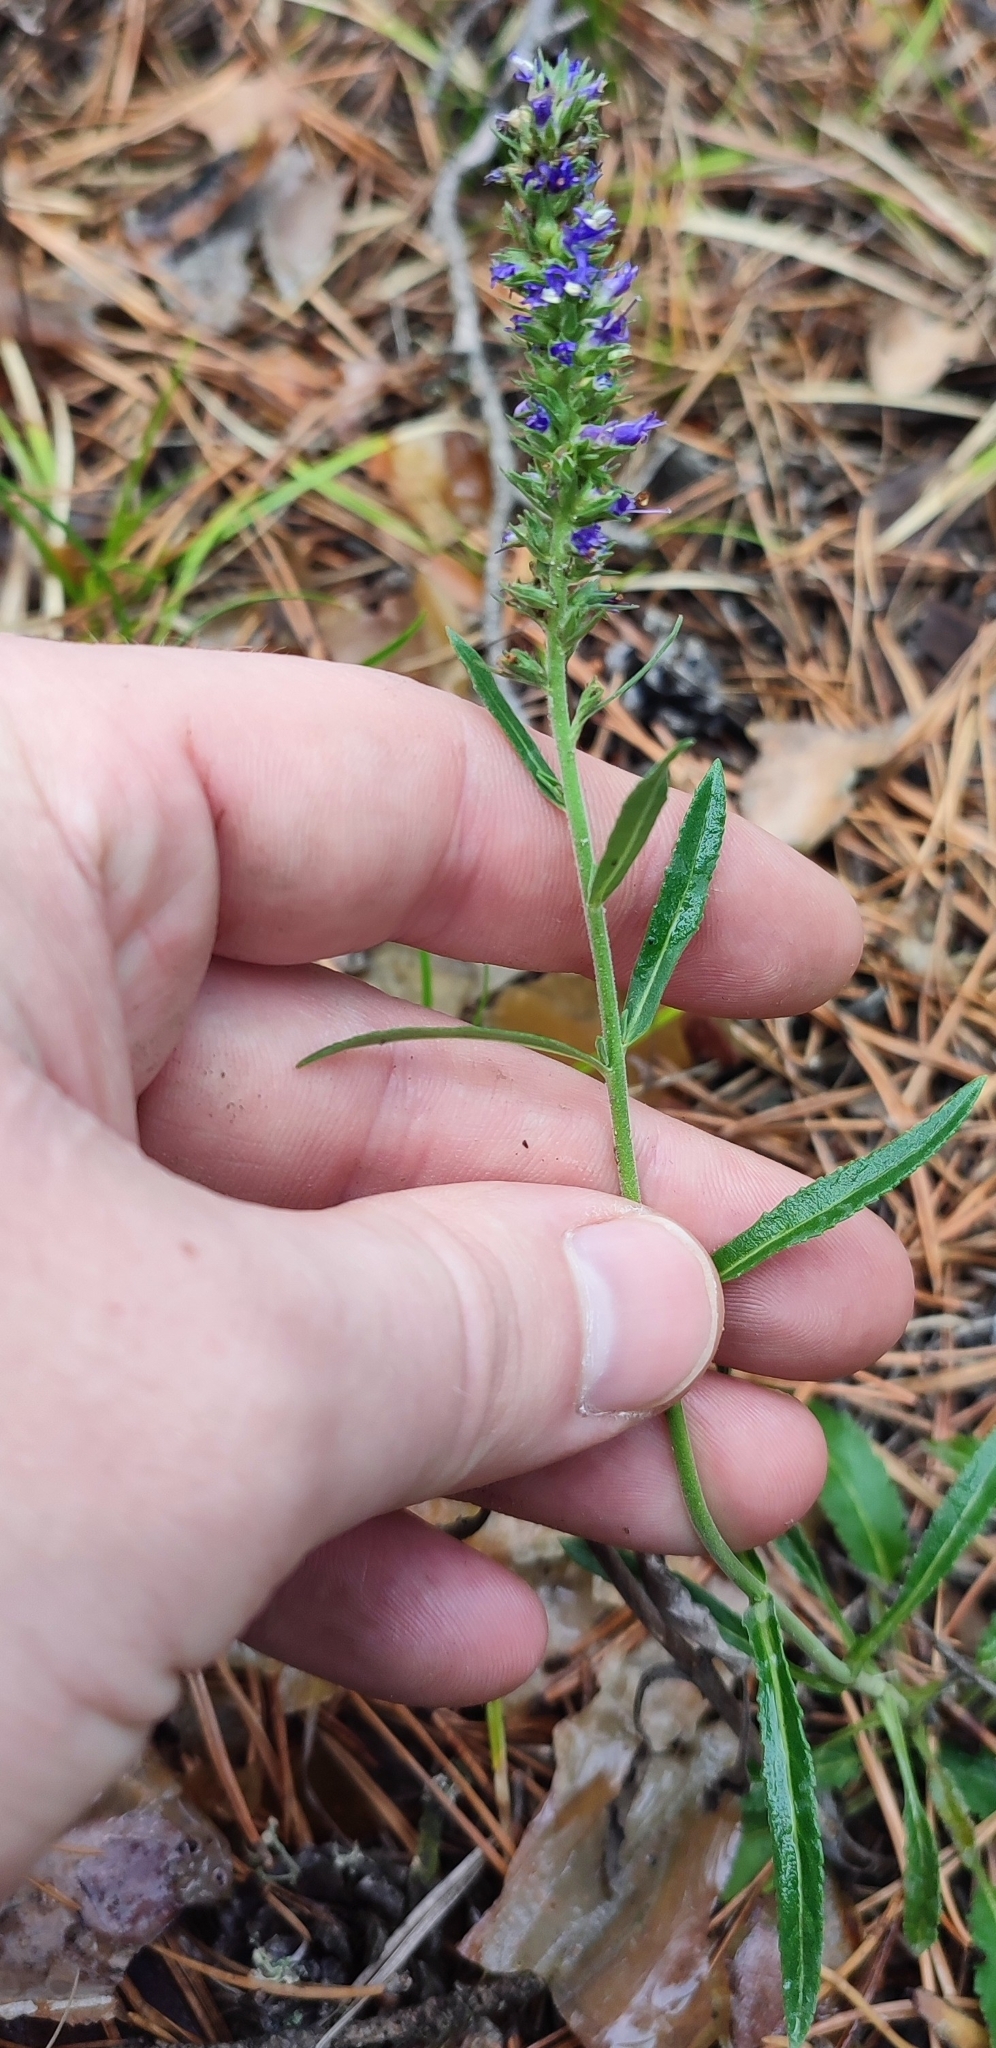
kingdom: Plantae
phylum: Tracheophyta
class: Magnoliopsida
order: Lamiales
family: Plantaginaceae
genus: Veronica
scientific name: Veronica spicata
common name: Spiked speedwell
